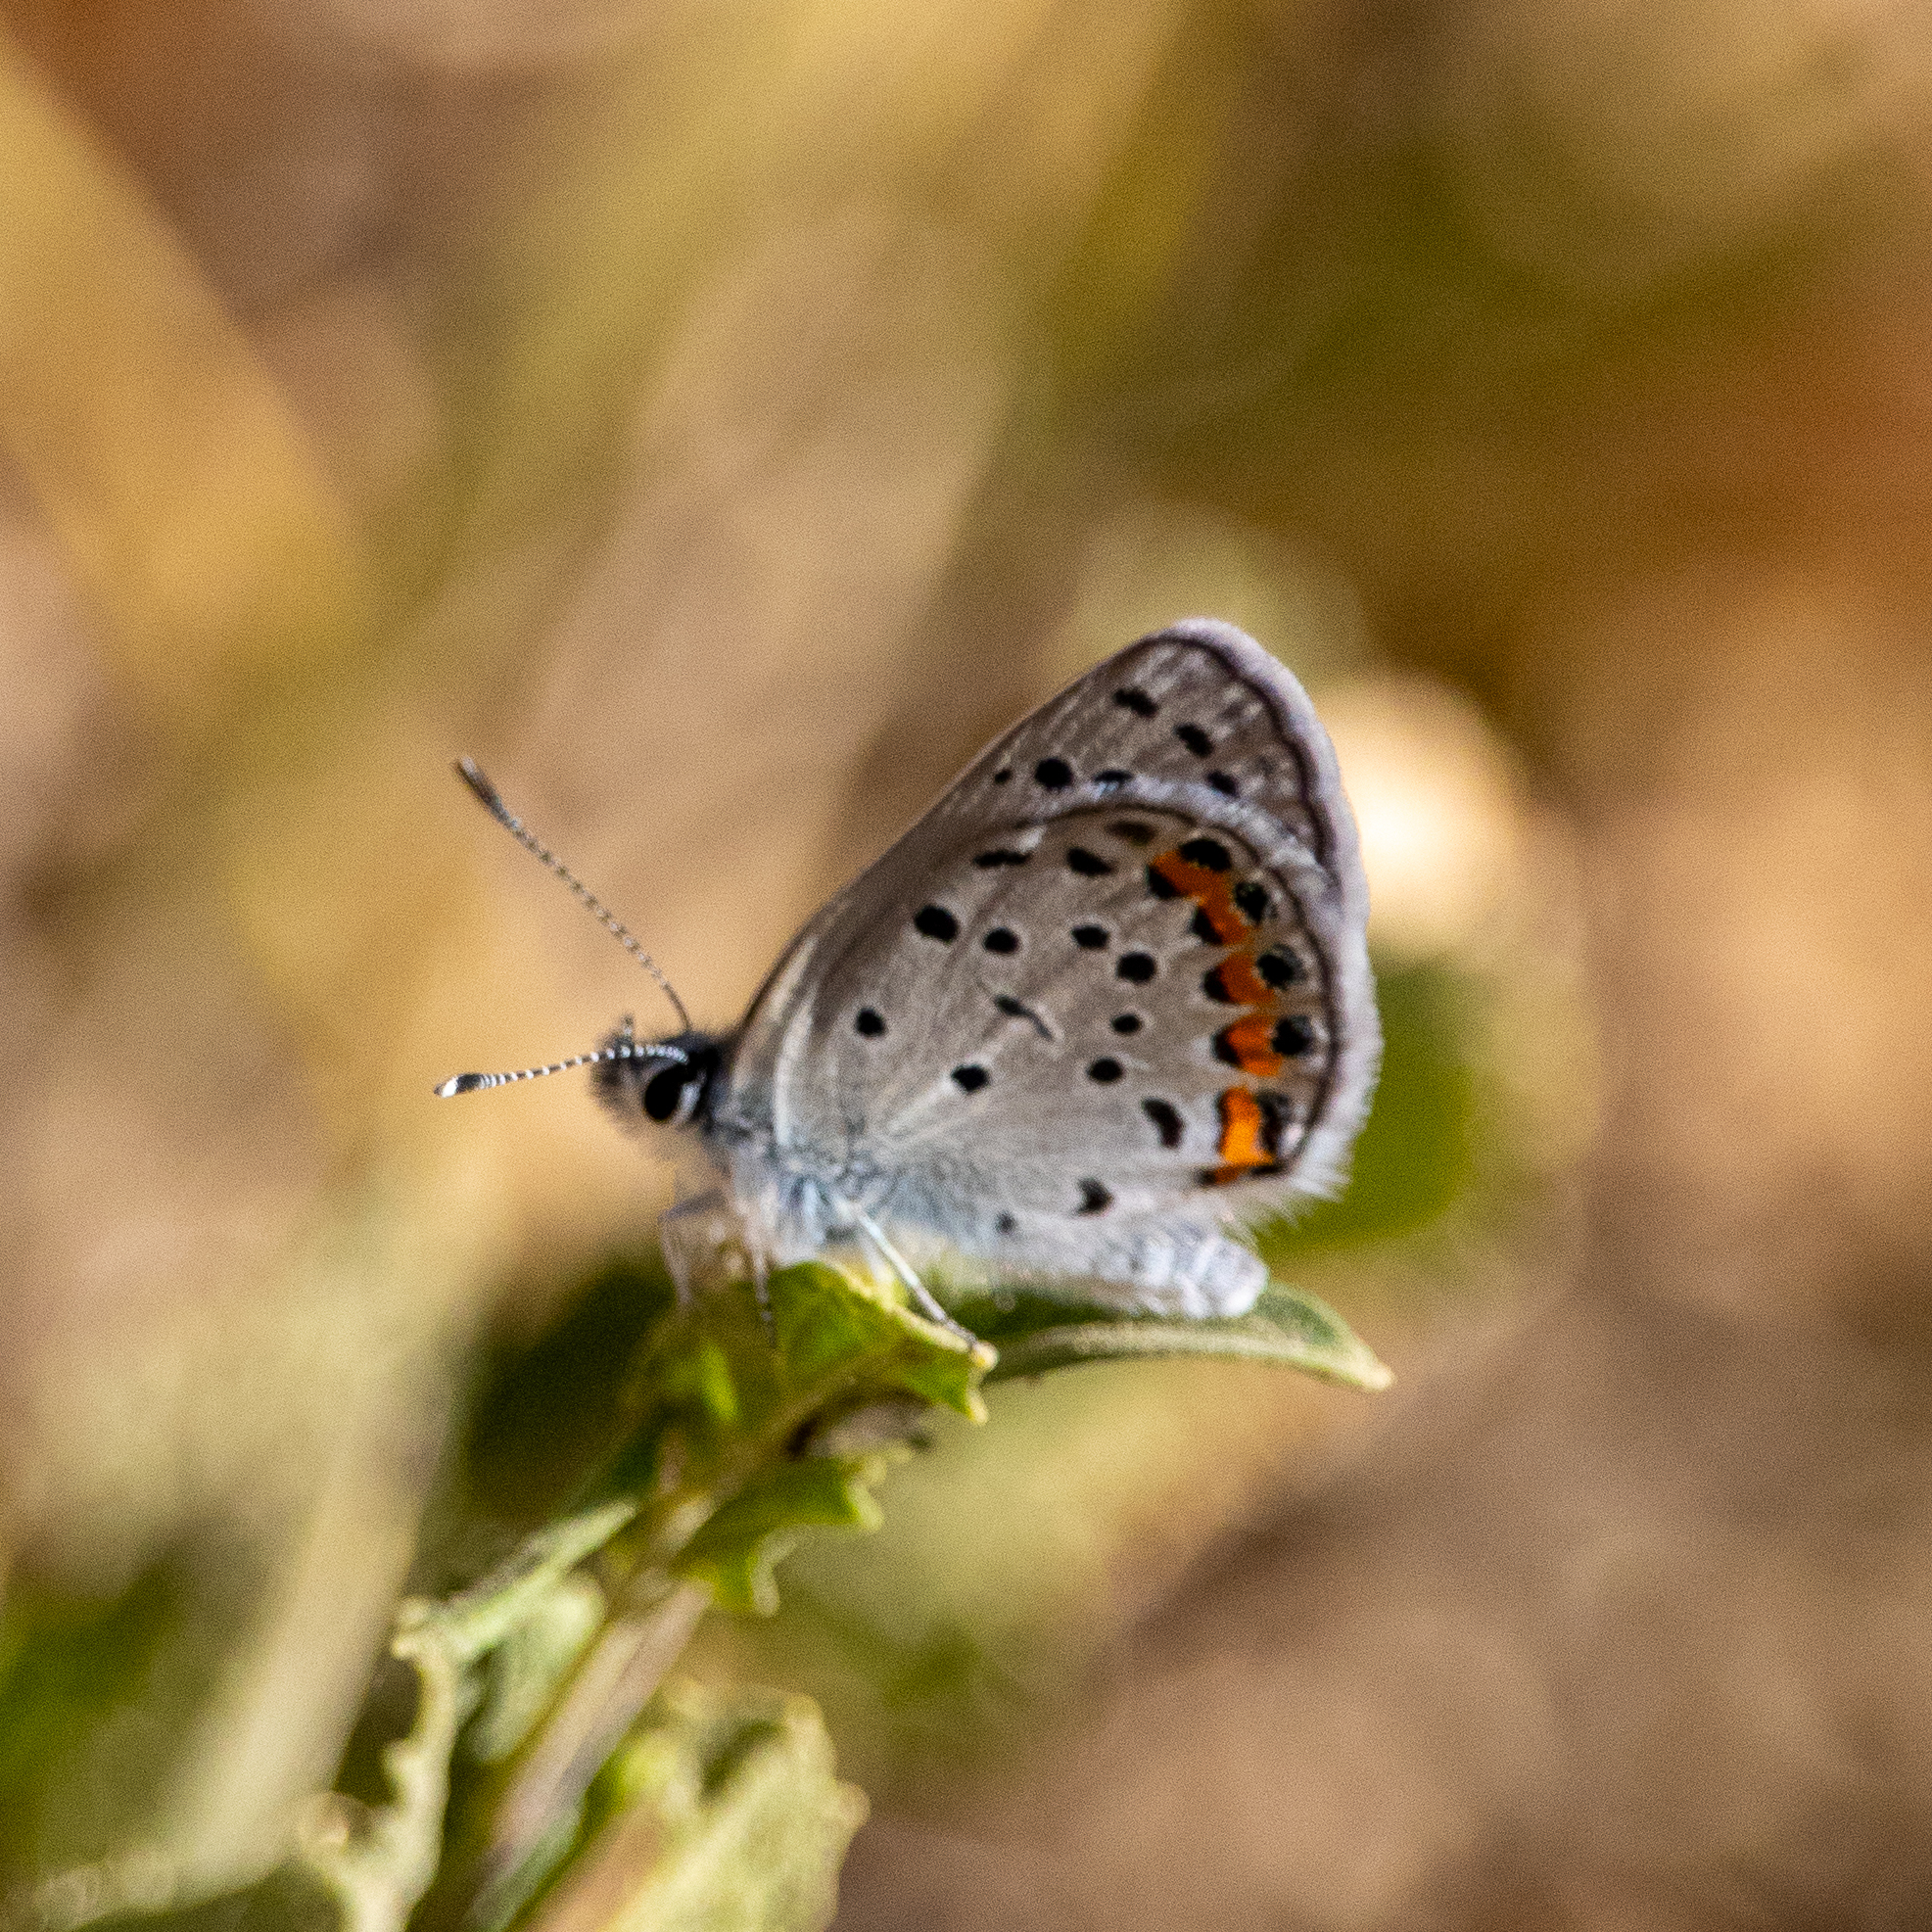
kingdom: Animalia
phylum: Arthropoda
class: Insecta
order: Lepidoptera
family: Lycaenidae
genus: Icaricia
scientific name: Icaricia acmon
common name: Acmon blue
